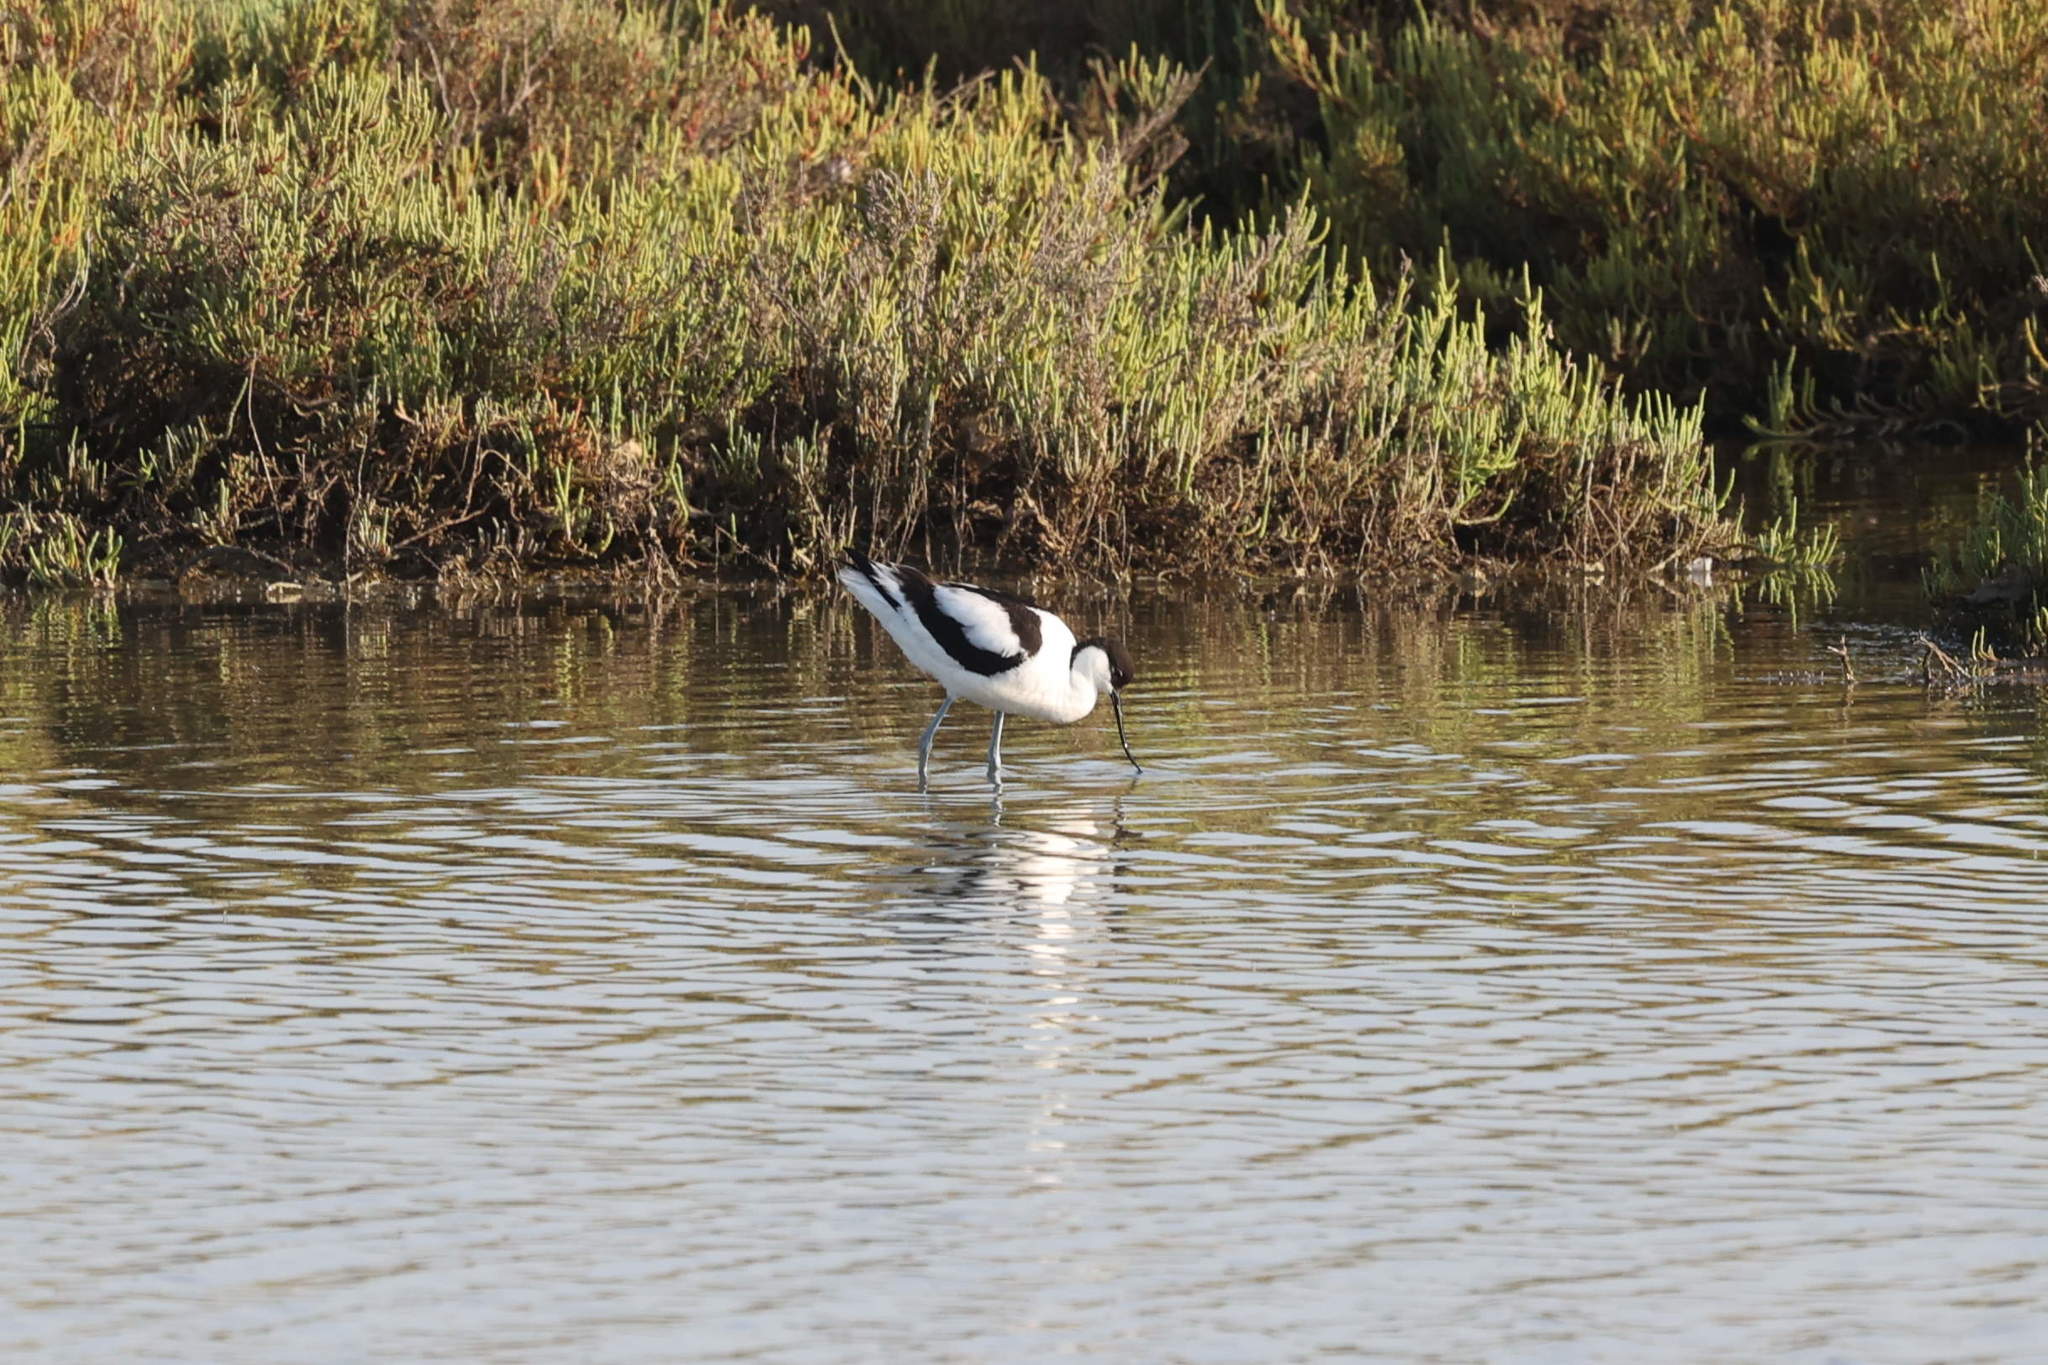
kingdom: Animalia
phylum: Chordata
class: Aves
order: Charadriiformes
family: Recurvirostridae
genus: Recurvirostra
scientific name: Recurvirostra avosetta
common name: Pied avocet
